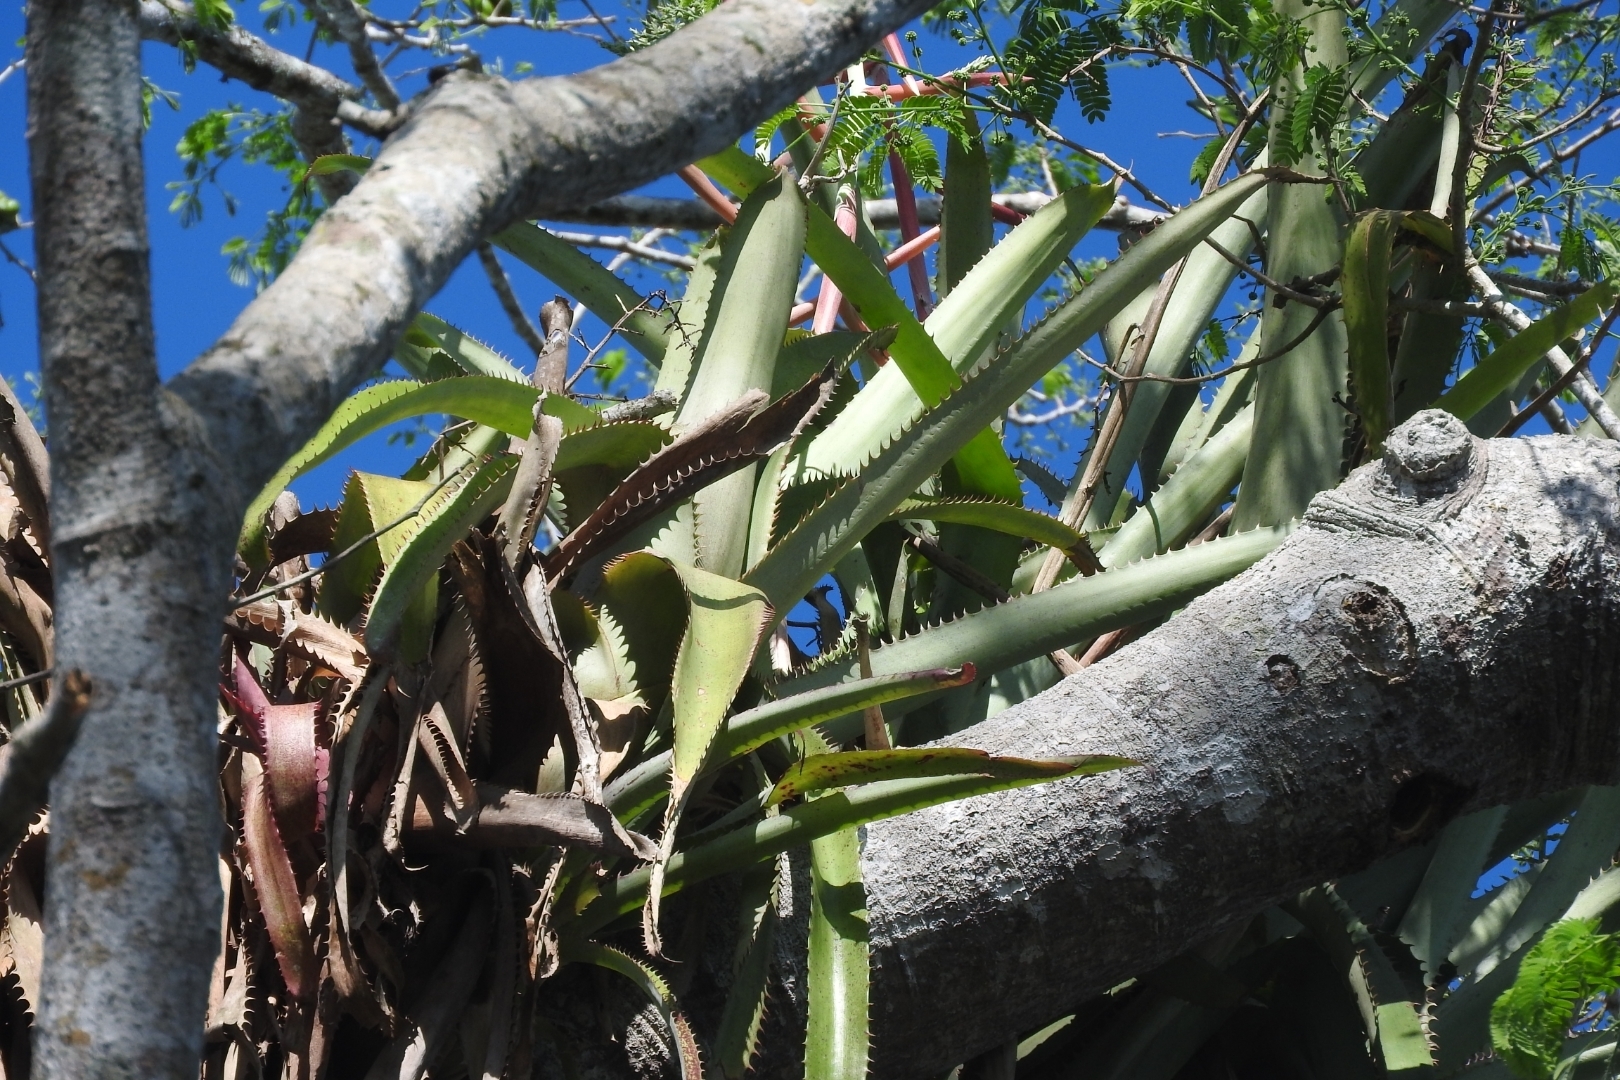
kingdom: Plantae
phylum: Tracheophyta
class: Liliopsida
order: Poales
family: Bromeliaceae
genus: Aechmea
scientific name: Aechmea bracteata
